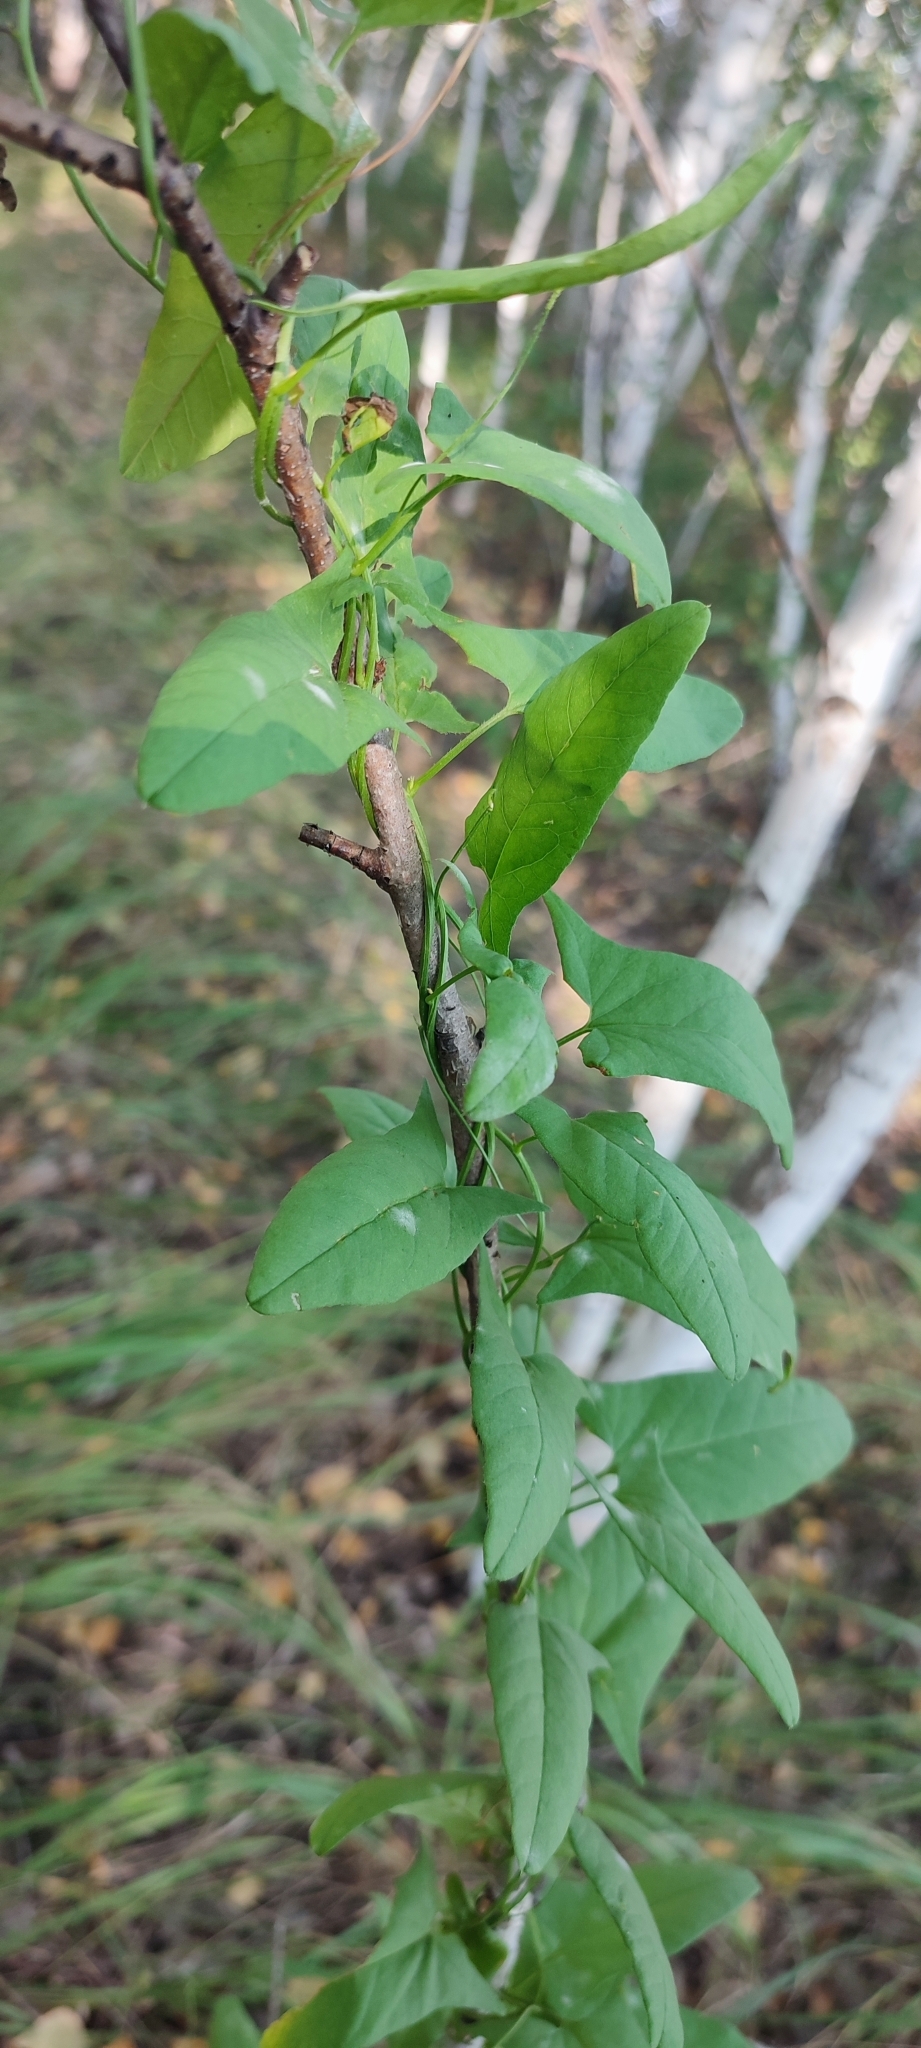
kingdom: Plantae
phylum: Tracheophyta
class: Magnoliopsida
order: Solanales
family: Convolvulaceae
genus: Convolvulus
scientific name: Convolvulus arvensis
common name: Field bindweed
